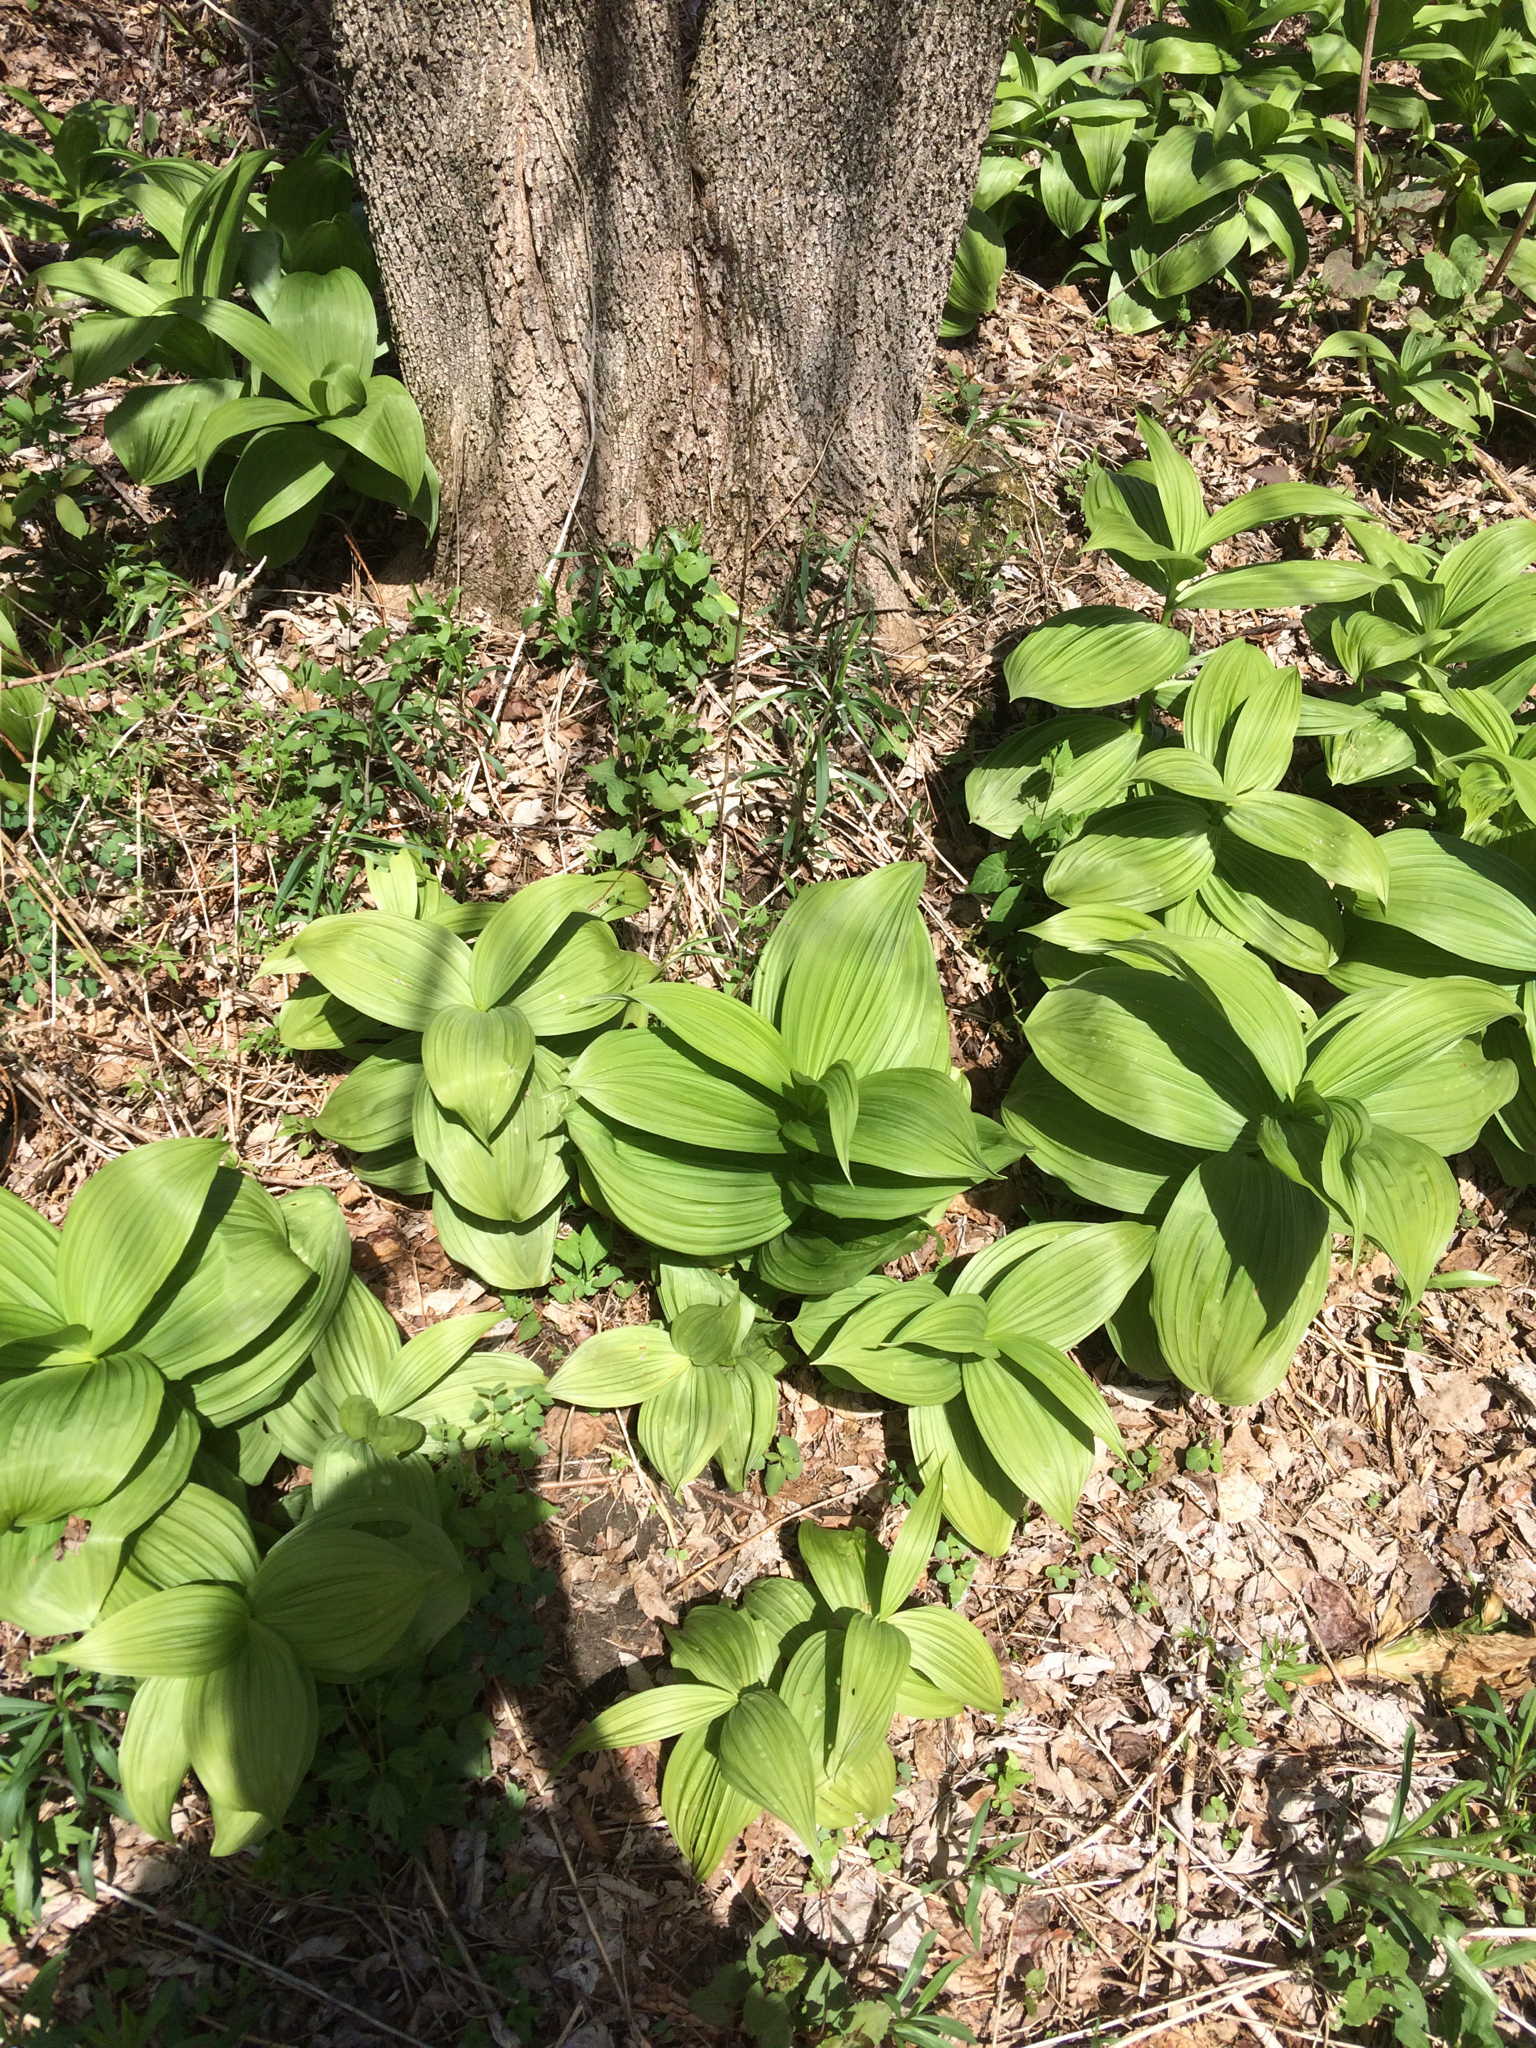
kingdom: Plantae
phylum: Tracheophyta
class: Liliopsida
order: Liliales
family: Melanthiaceae
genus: Veratrum
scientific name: Veratrum viride
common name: American false hellebore
